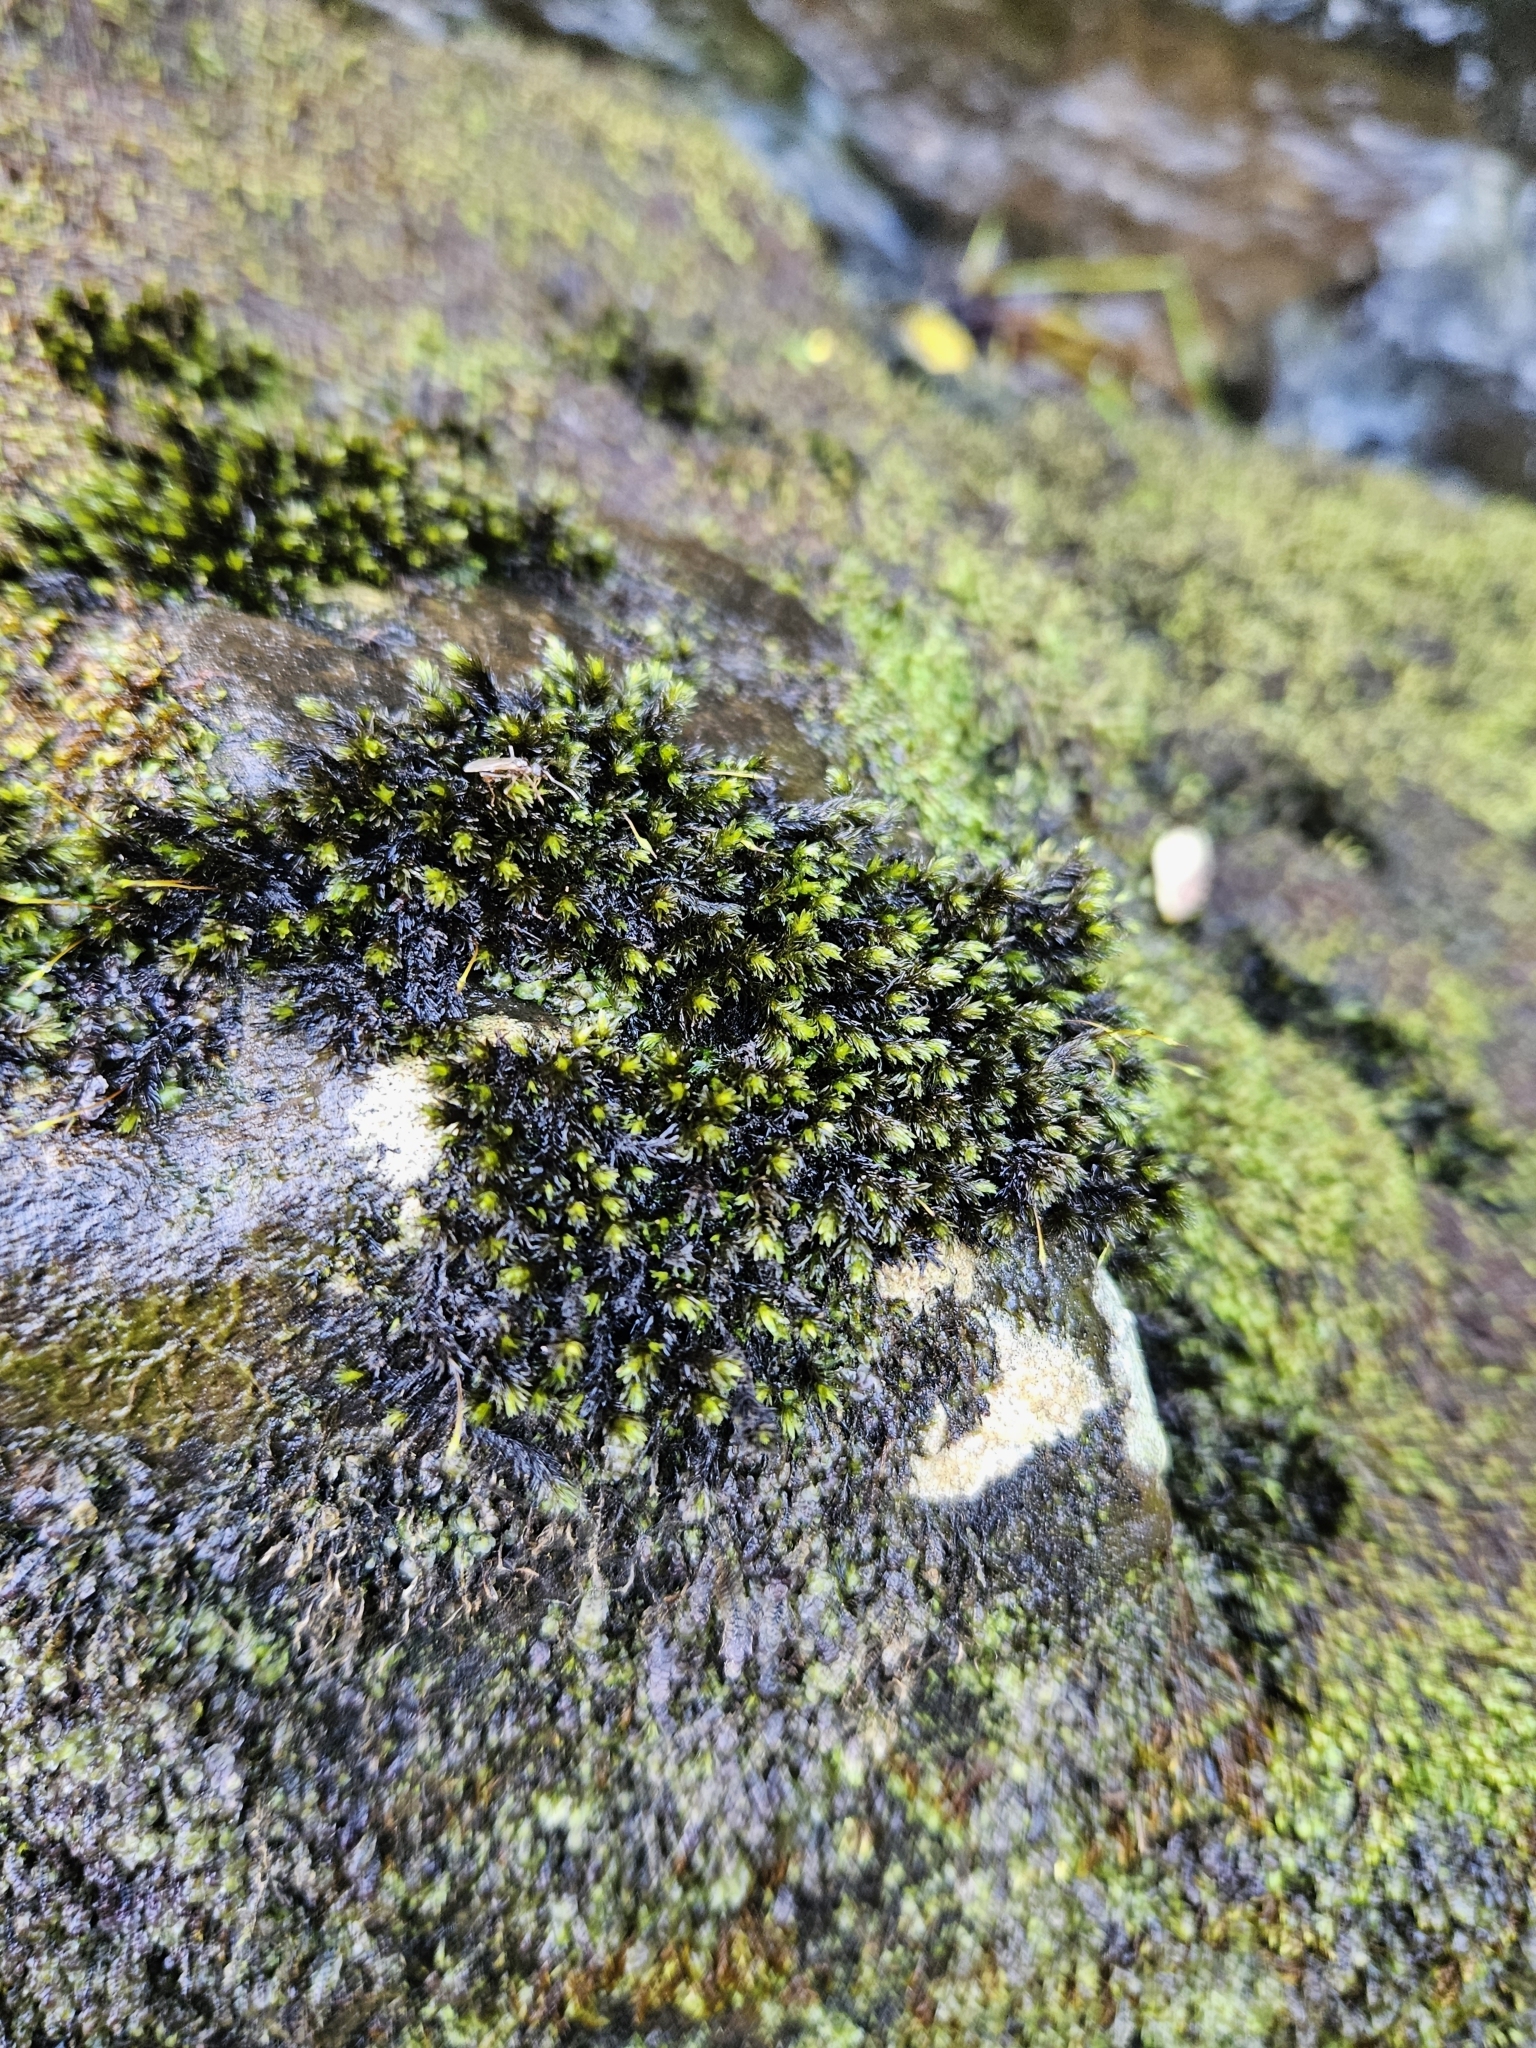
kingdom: Plantae
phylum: Bryophyta
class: Bryopsida
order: Grimmiales
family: Grimmiaceae
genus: Codriophorus
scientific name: Codriophorus acicularis
